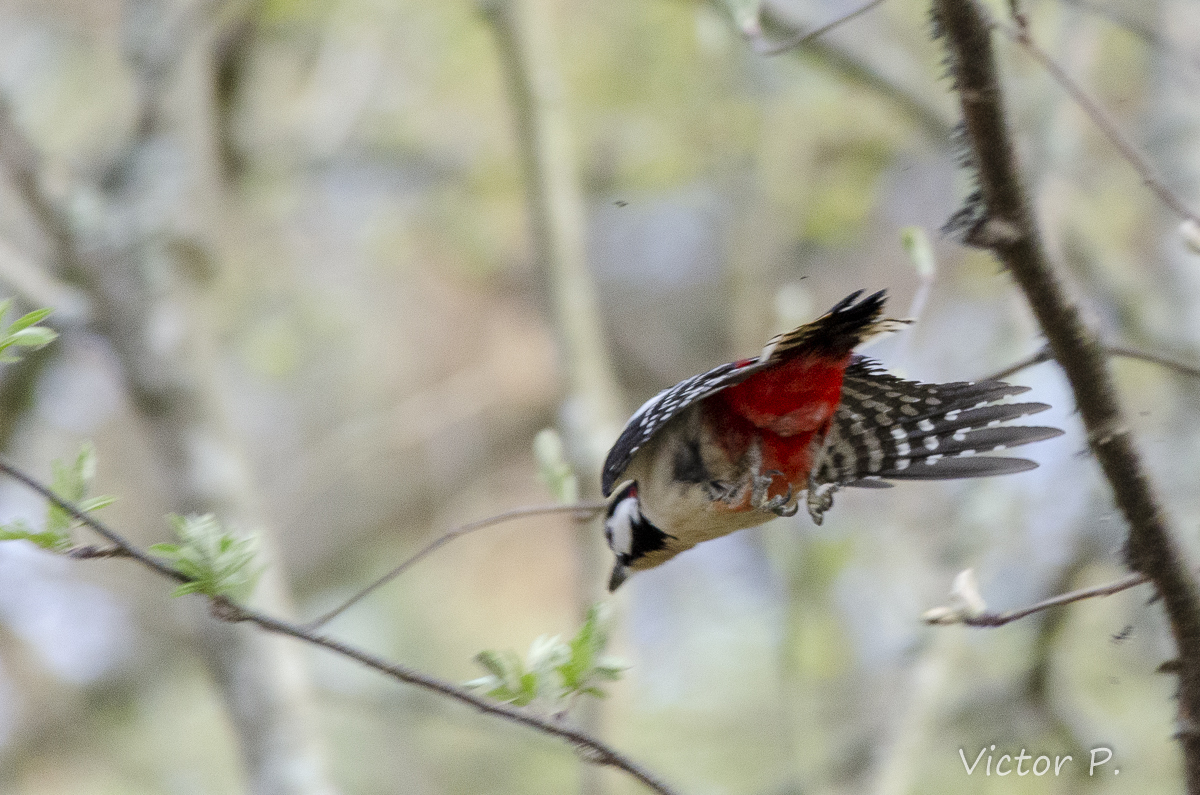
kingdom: Animalia
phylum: Chordata
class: Aves
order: Piciformes
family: Picidae
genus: Dendrocopos
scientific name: Dendrocopos major
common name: Great spotted woodpecker
